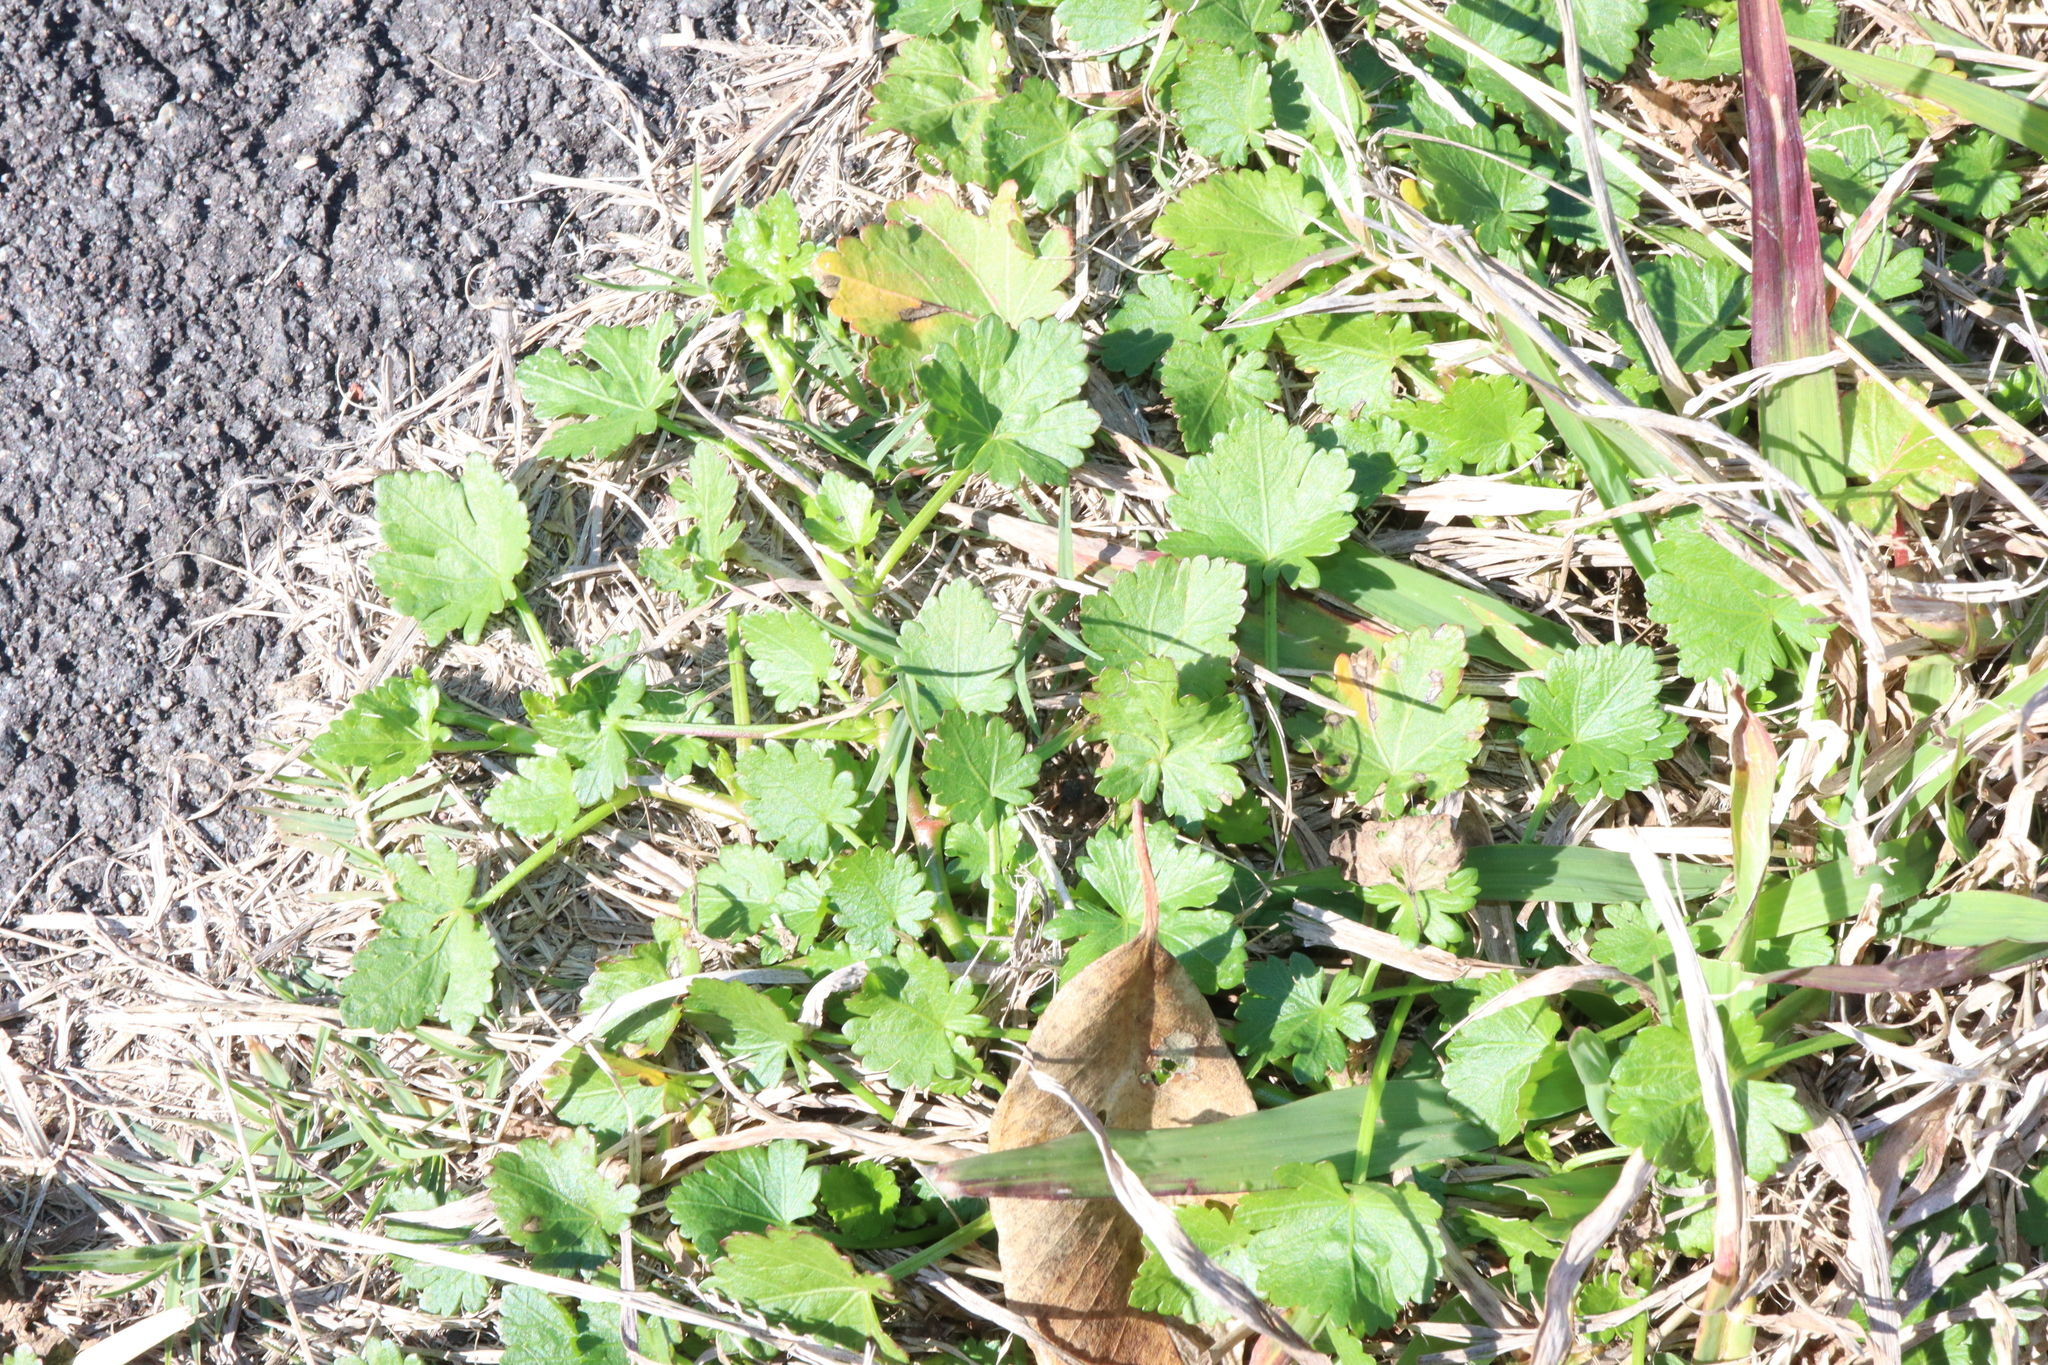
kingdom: Plantae
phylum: Tracheophyta
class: Magnoliopsida
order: Malvales
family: Malvaceae
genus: Modiola
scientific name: Modiola caroliniana
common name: Carolina bristlemallow
